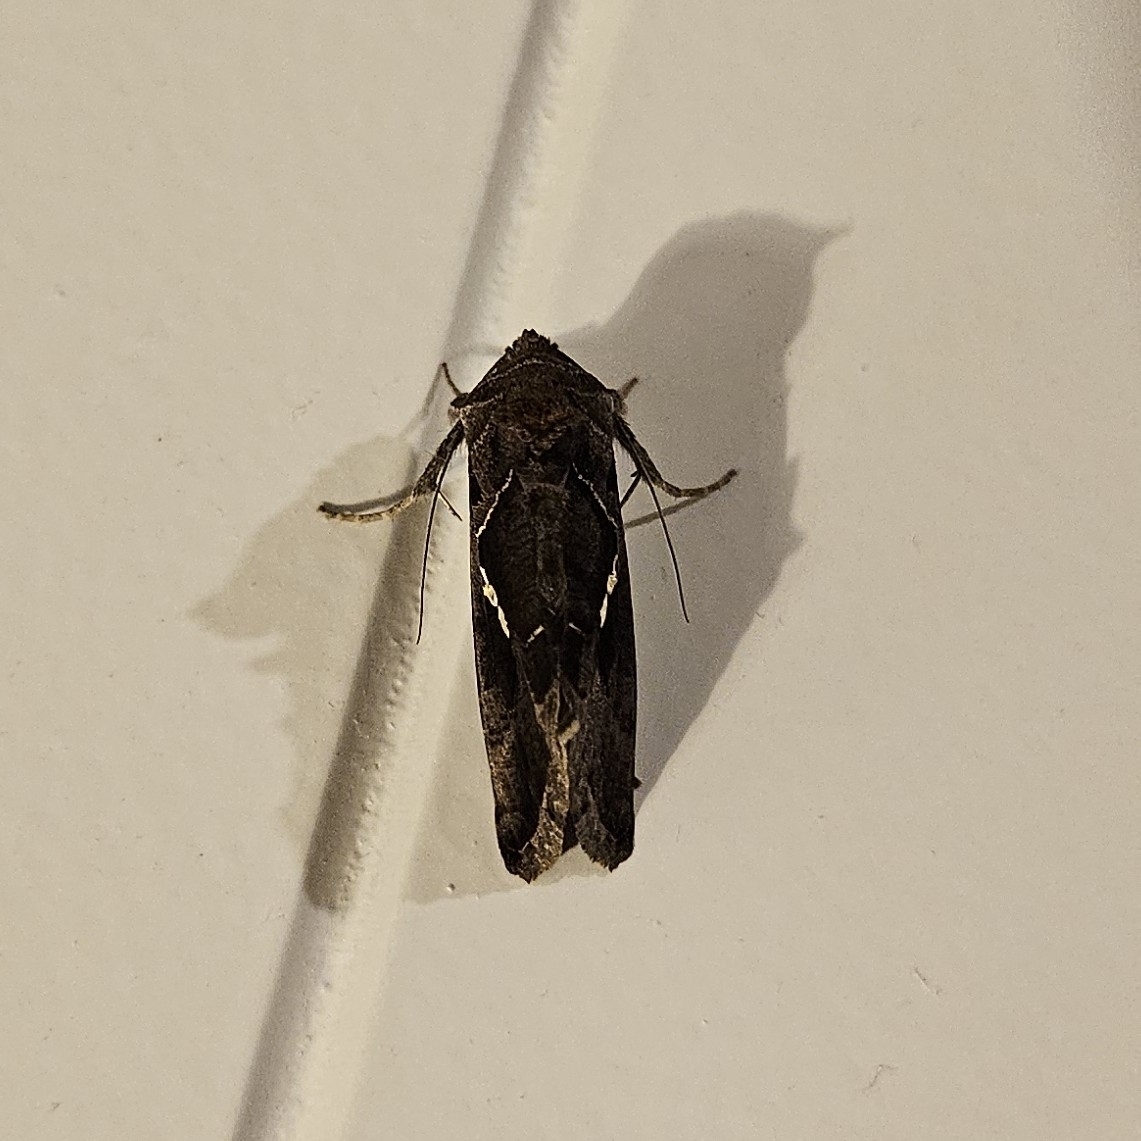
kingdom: Animalia
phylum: Arthropoda
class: Insecta
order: Lepidoptera
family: Noctuidae
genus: Ctenoplusia
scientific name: Ctenoplusia limbirena
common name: Scar bank gem
